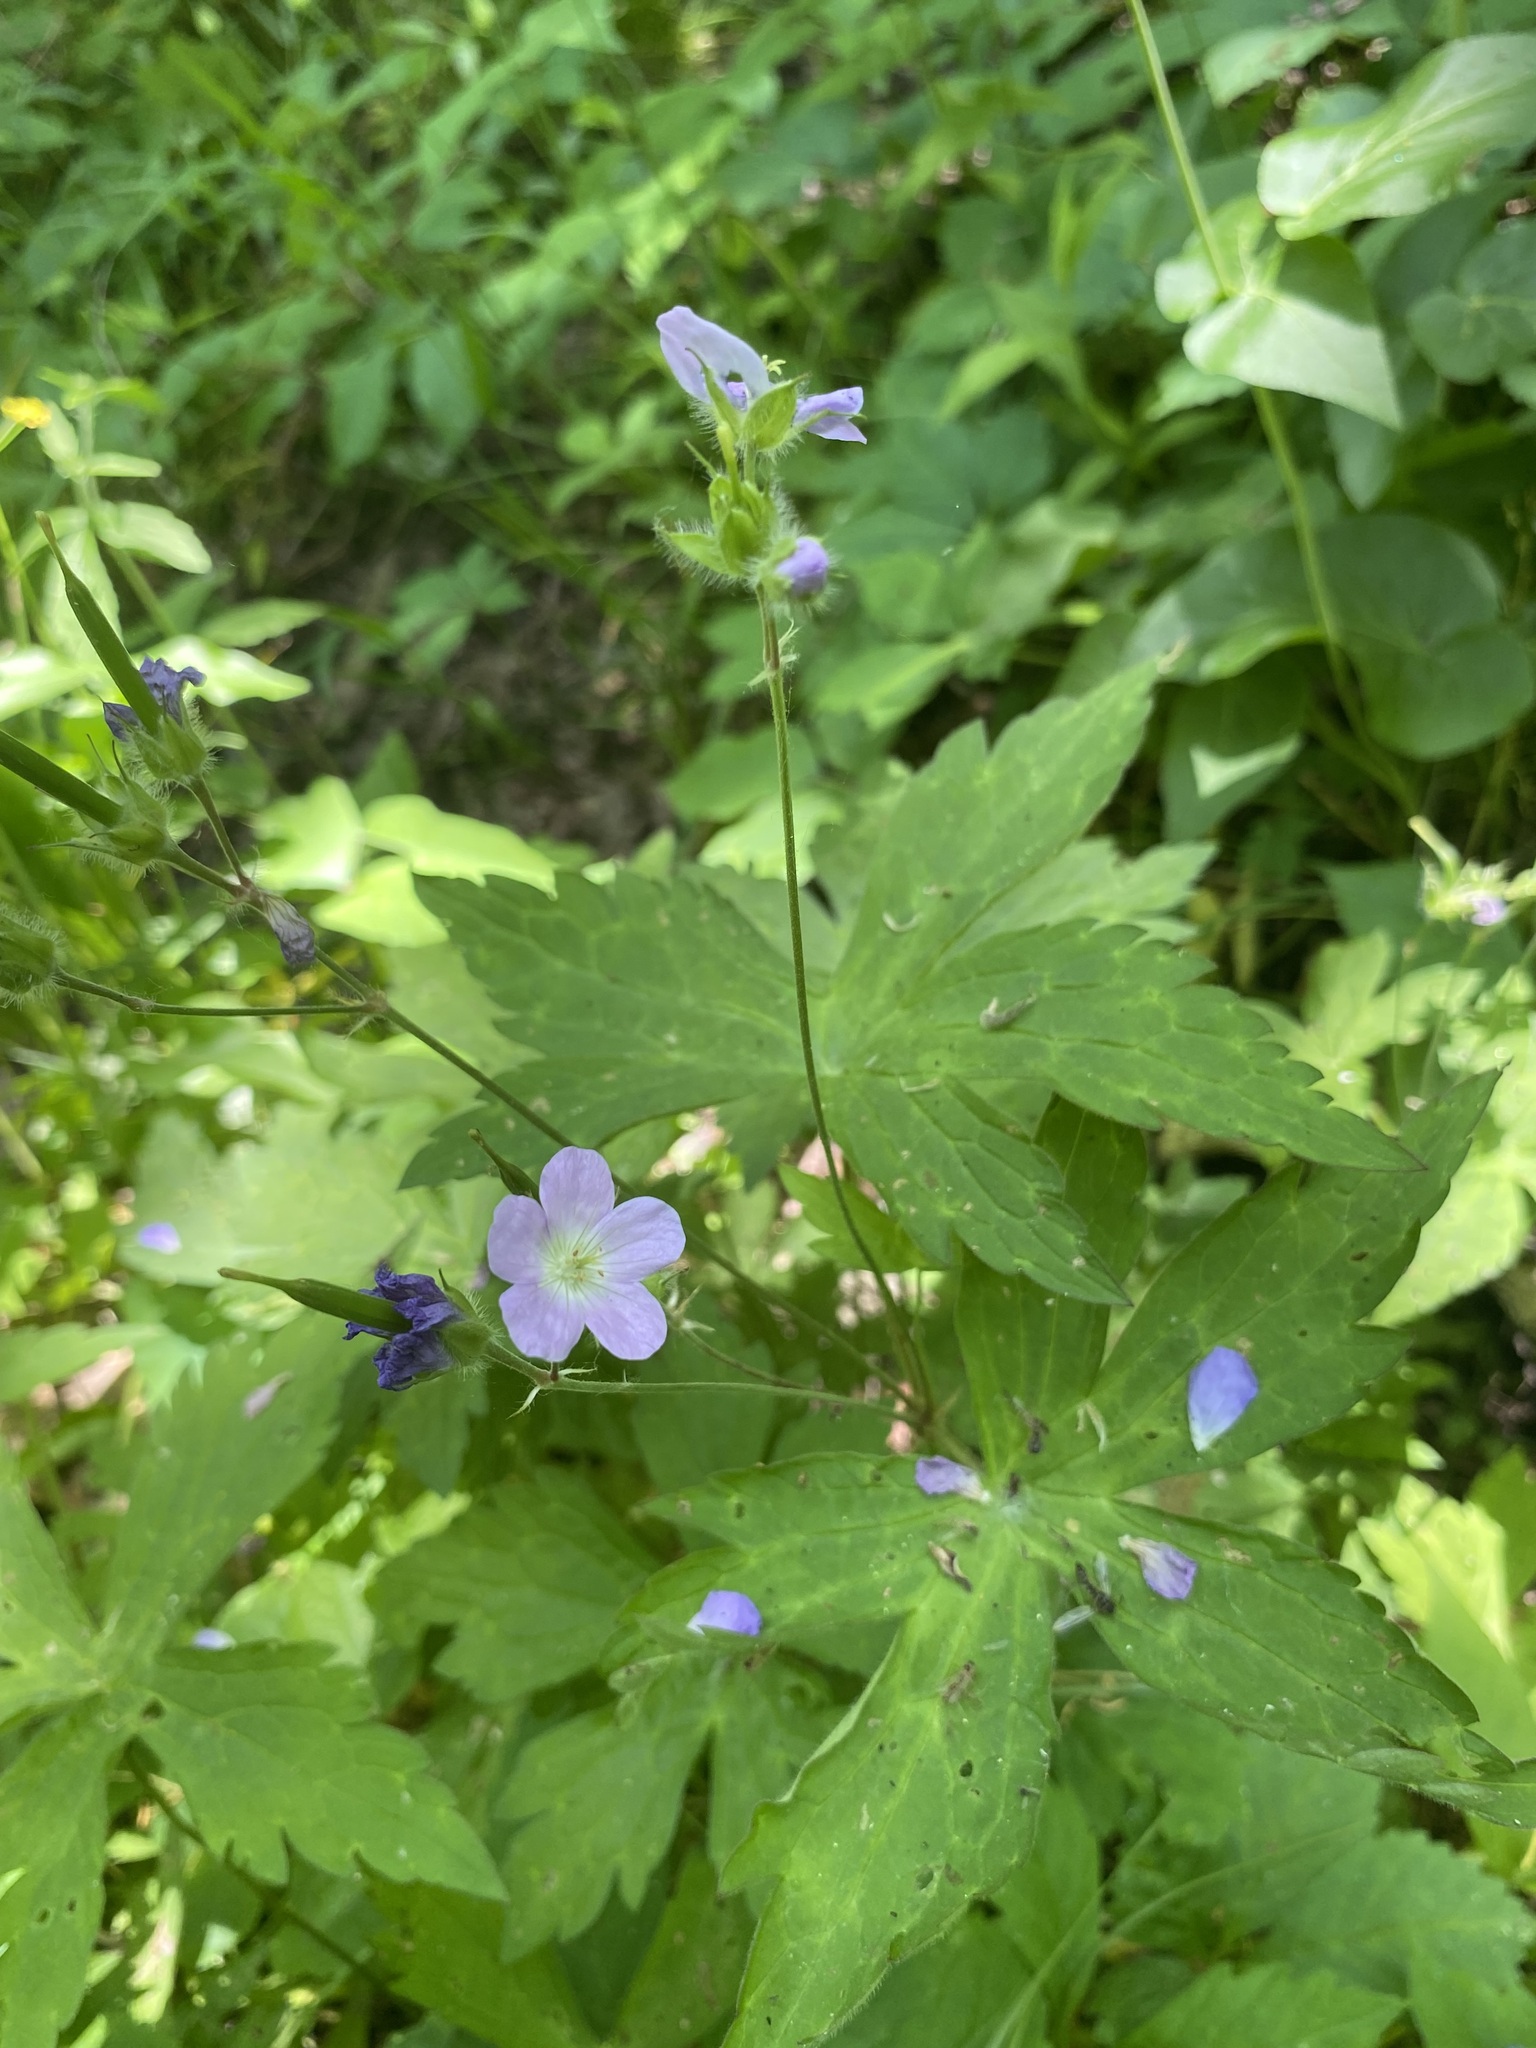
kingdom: Plantae
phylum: Tracheophyta
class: Magnoliopsida
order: Geraniales
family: Geraniaceae
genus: Geranium
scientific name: Geranium maculatum
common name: Spotted geranium
